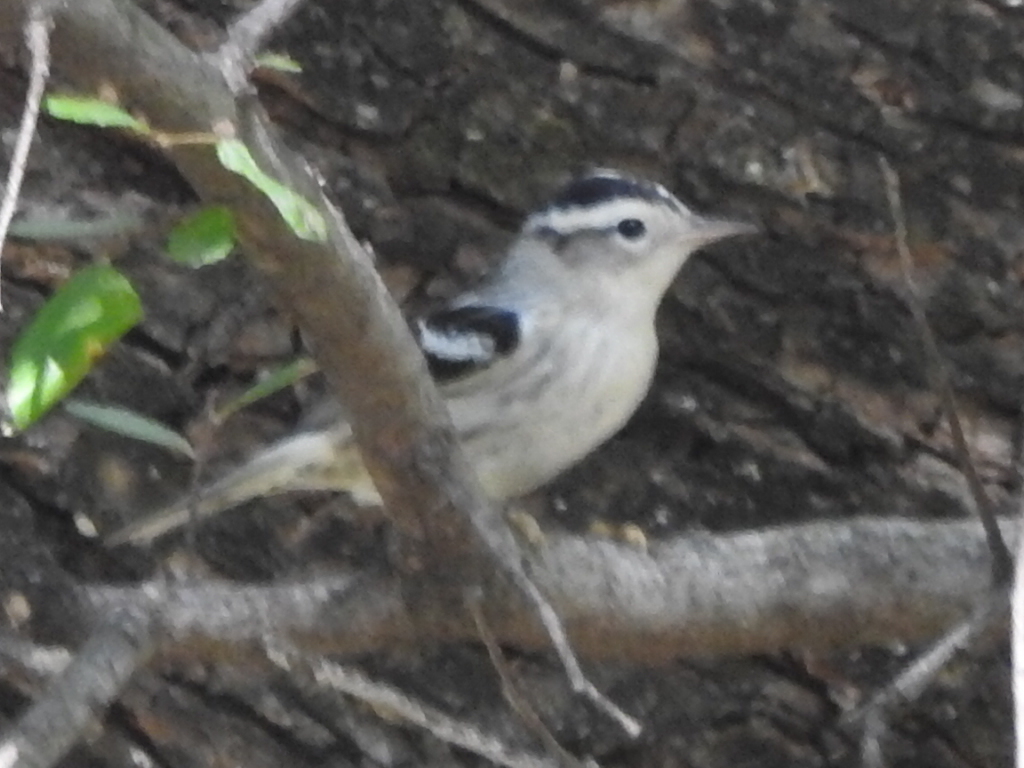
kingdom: Animalia
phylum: Chordata
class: Aves
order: Passeriformes
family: Parulidae
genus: Mniotilta
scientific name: Mniotilta varia
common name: Black-and-white warbler
